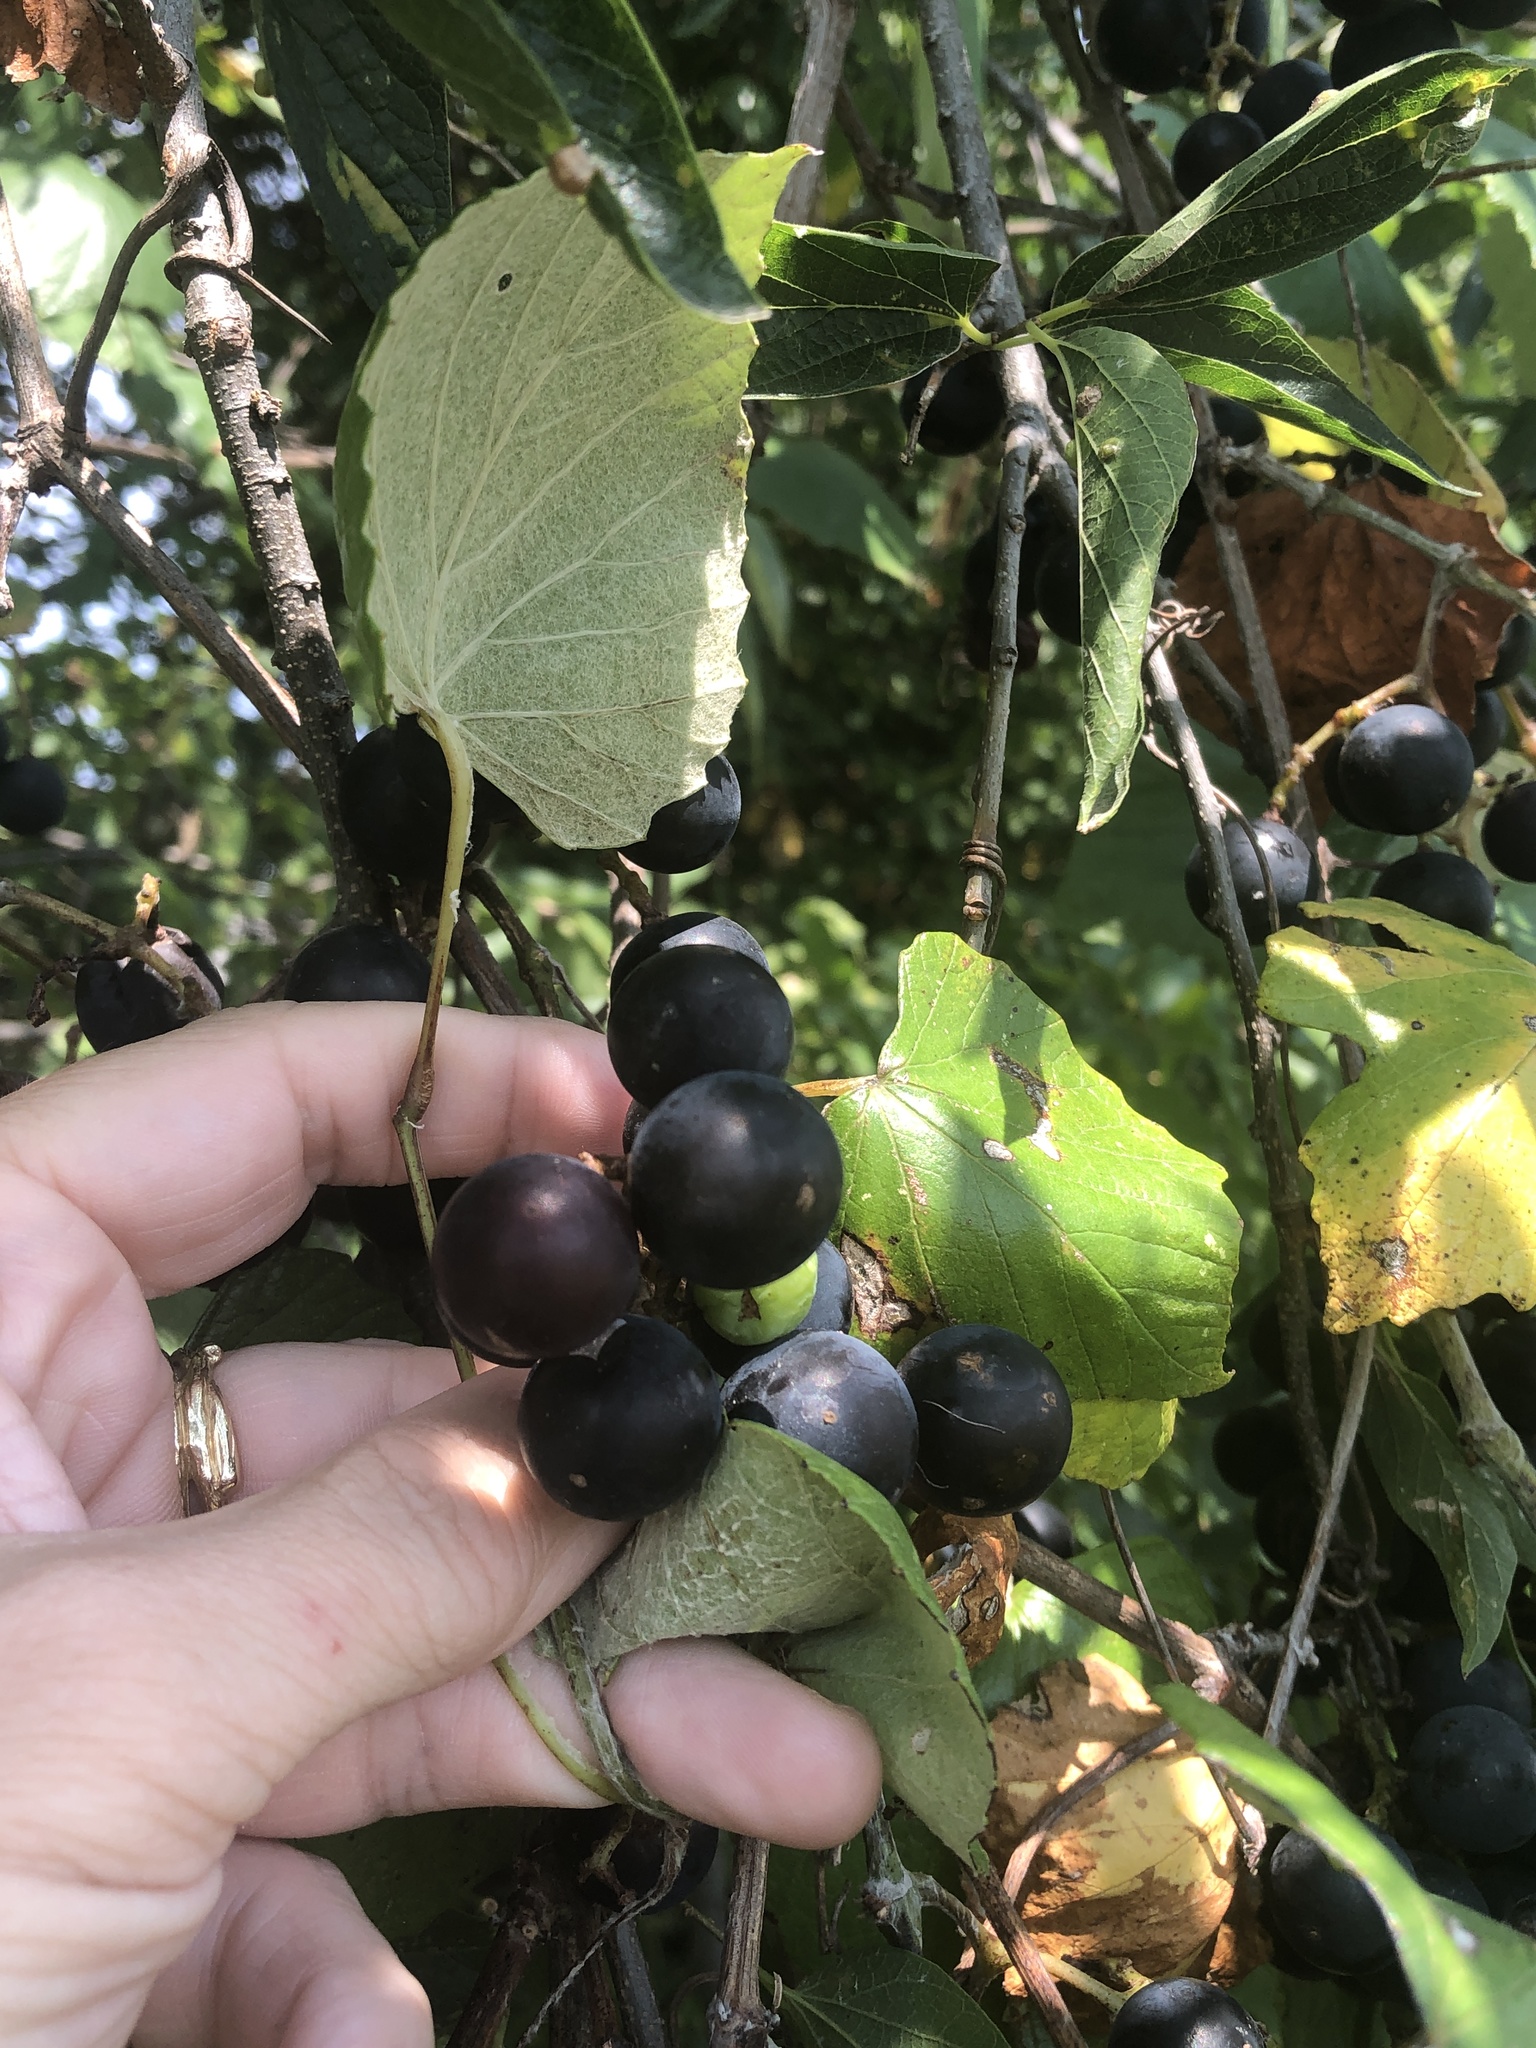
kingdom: Plantae
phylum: Tracheophyta
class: Magnoliopsida
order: Vitales
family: Vitaceae
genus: Vitis
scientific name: Vitis mustangensis
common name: Mustang grape
